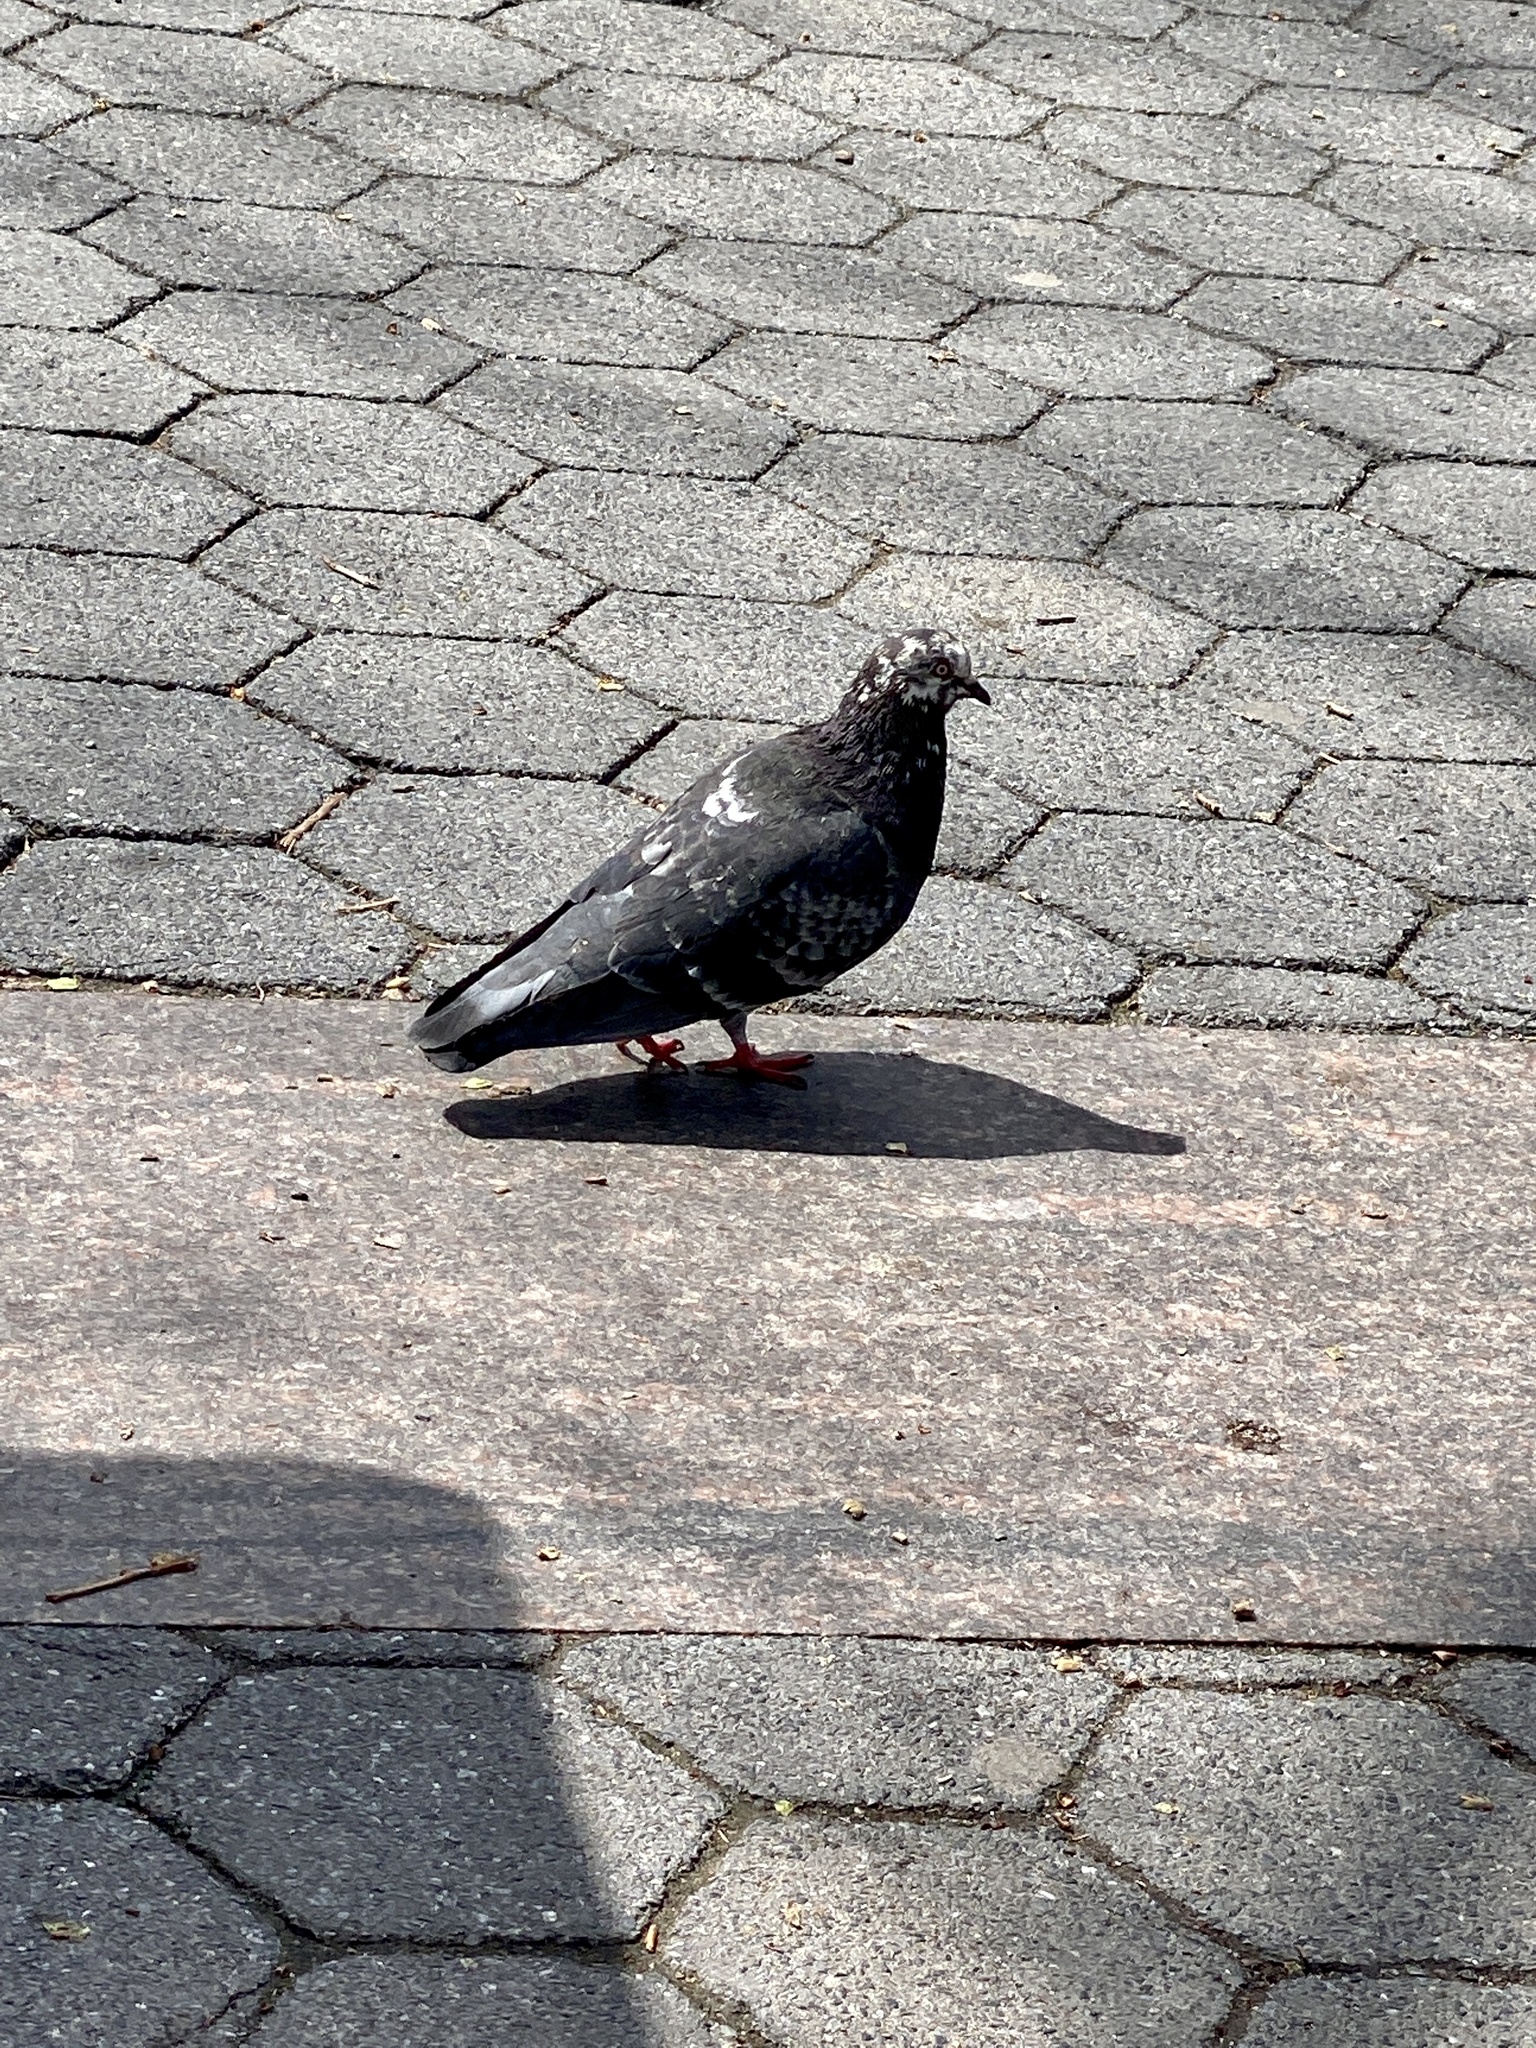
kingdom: Animalia
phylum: Chordata
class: Aves
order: Columbiformes
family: Columbidae
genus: Columba
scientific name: Columba livia
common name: Rock pigeon
